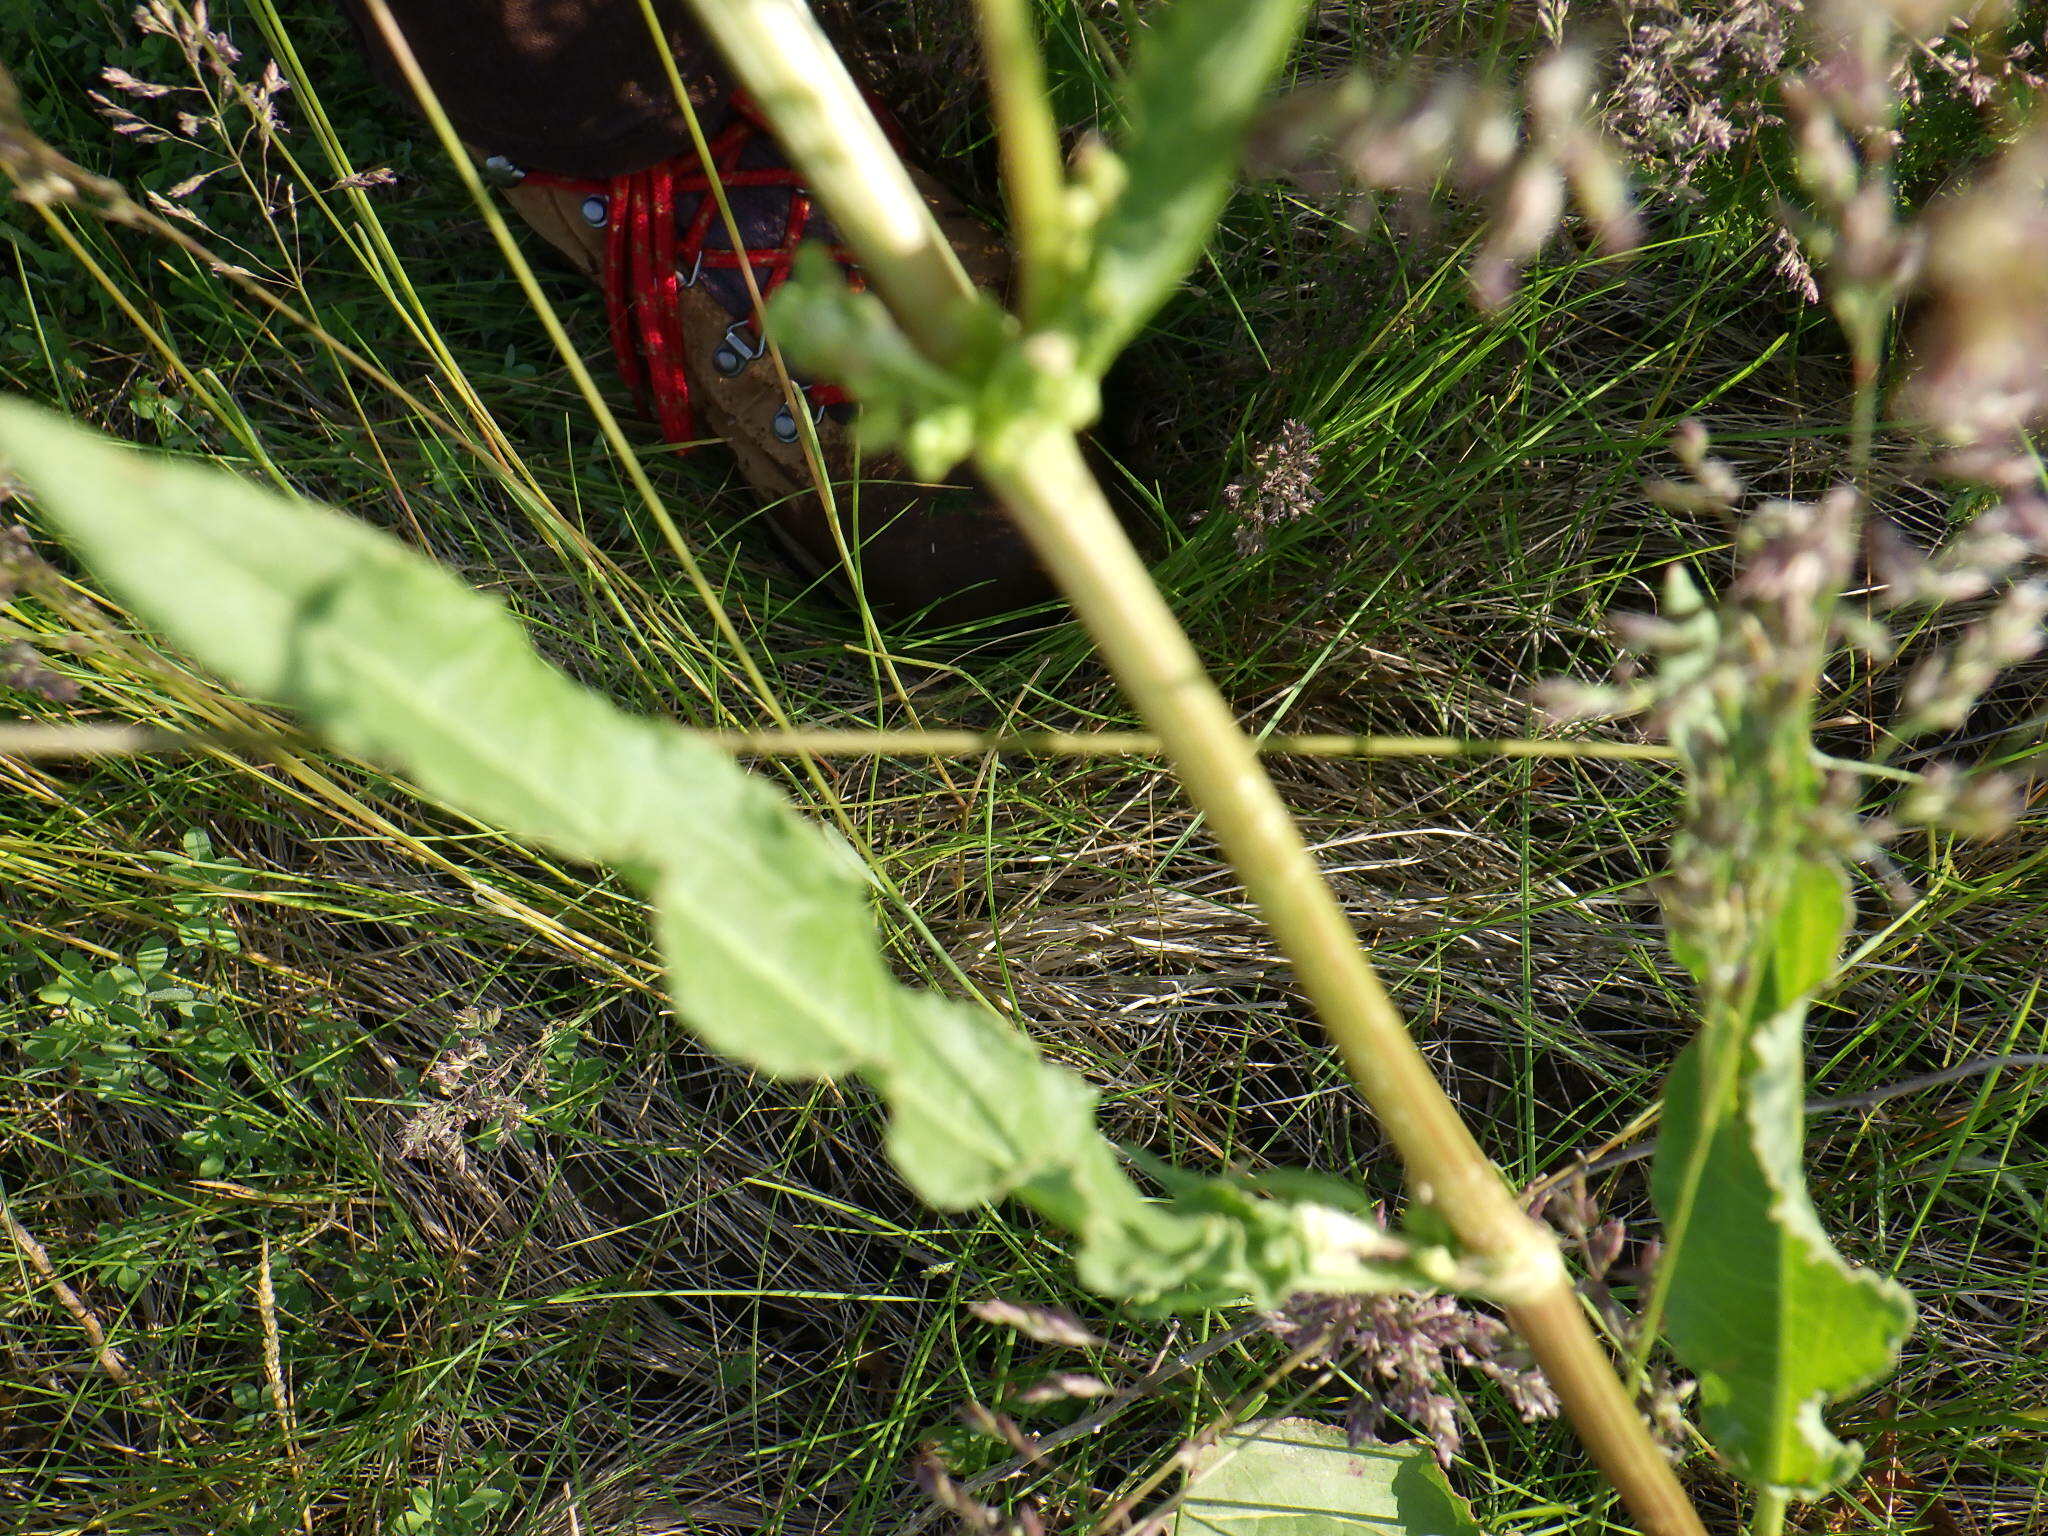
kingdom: Plantae
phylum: Tracheophyta
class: Magnoliopsida
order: Caryophyllales
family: Polygonaceae
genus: Rumex
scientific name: Rumex crispus
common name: Curled dock
